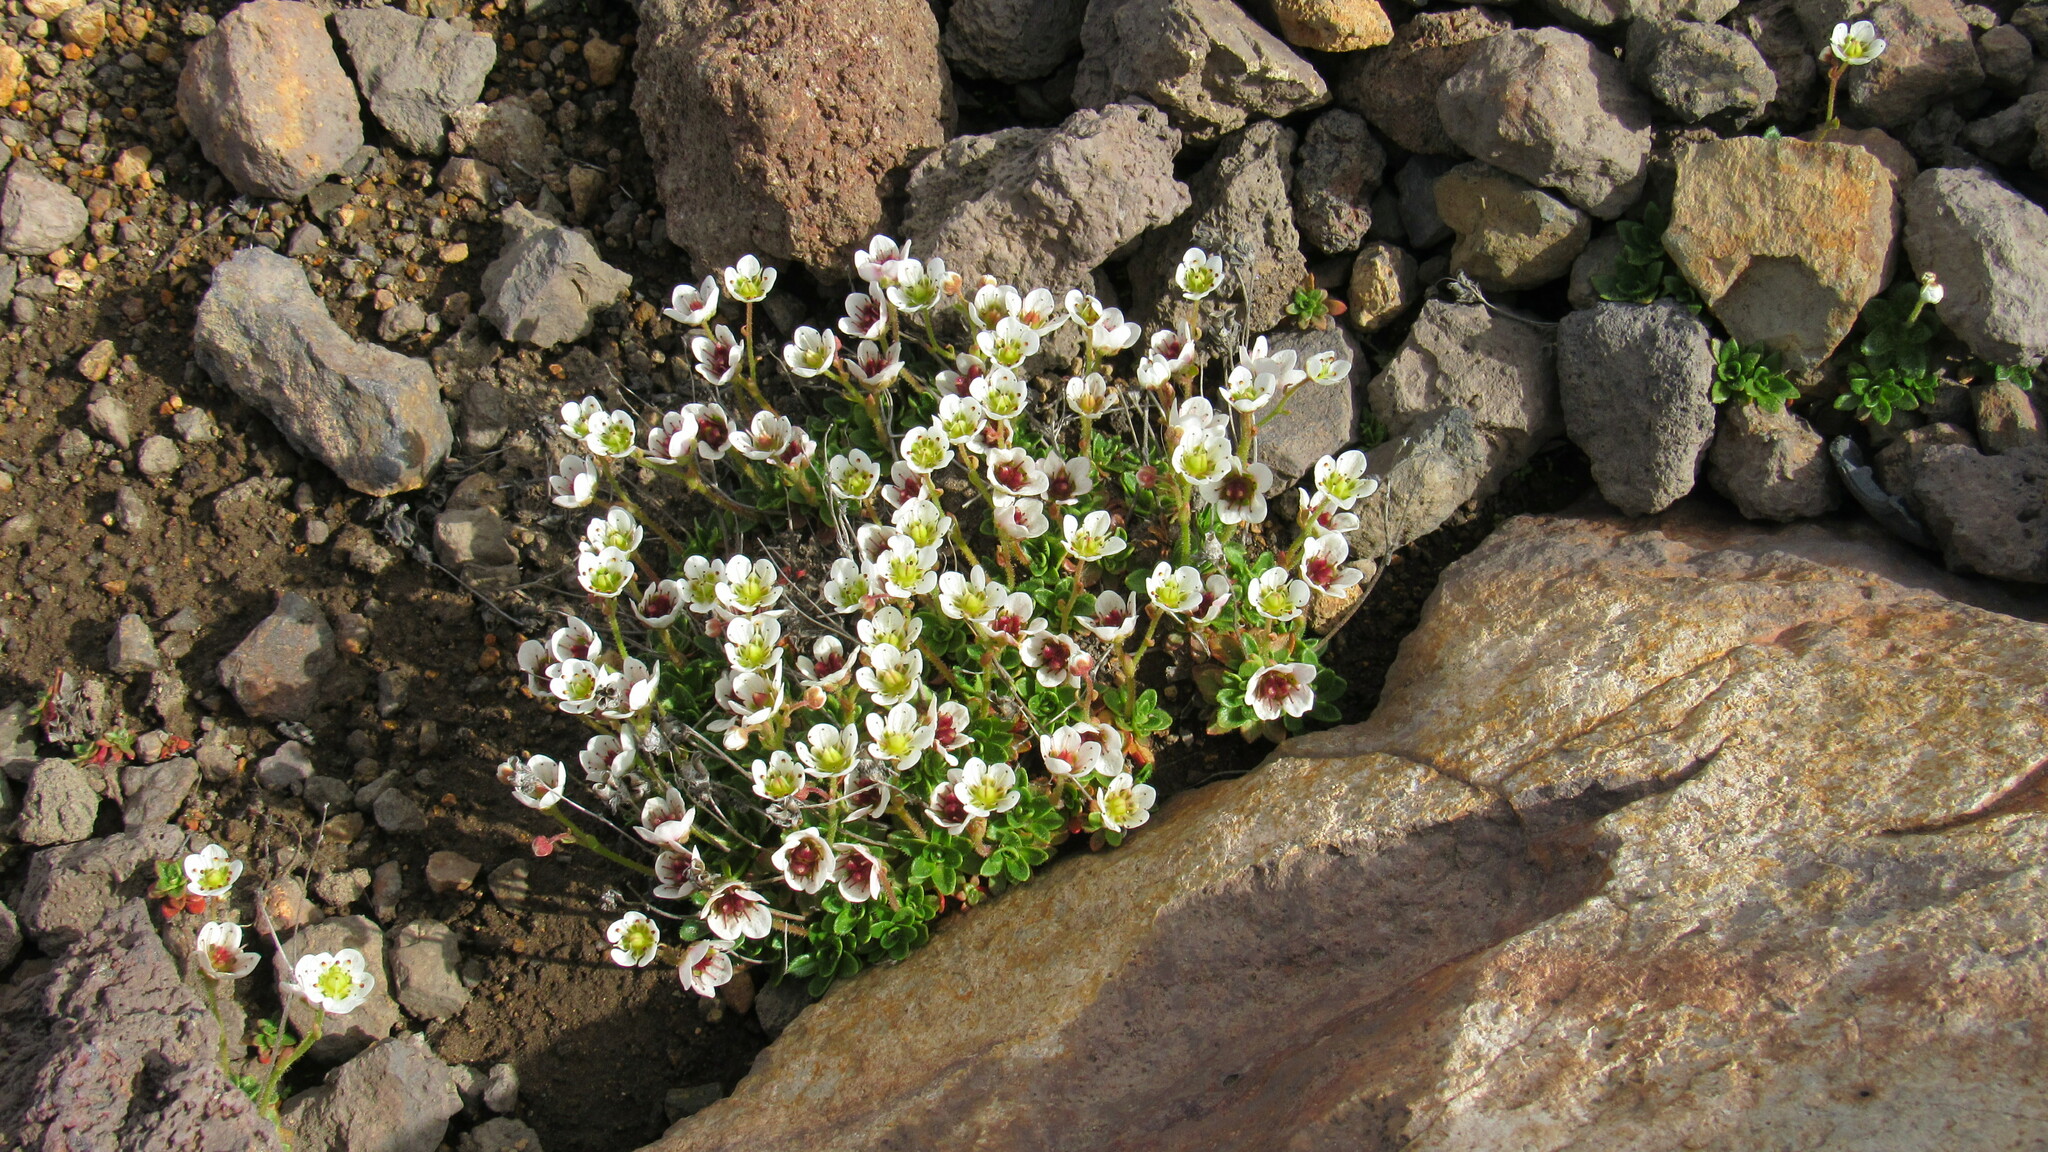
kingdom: Plantae
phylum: Tracheophyta
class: Magnoliopsida
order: Saxifragales
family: Saxifragaceae
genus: Micranthes
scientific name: Micranthes merkii
